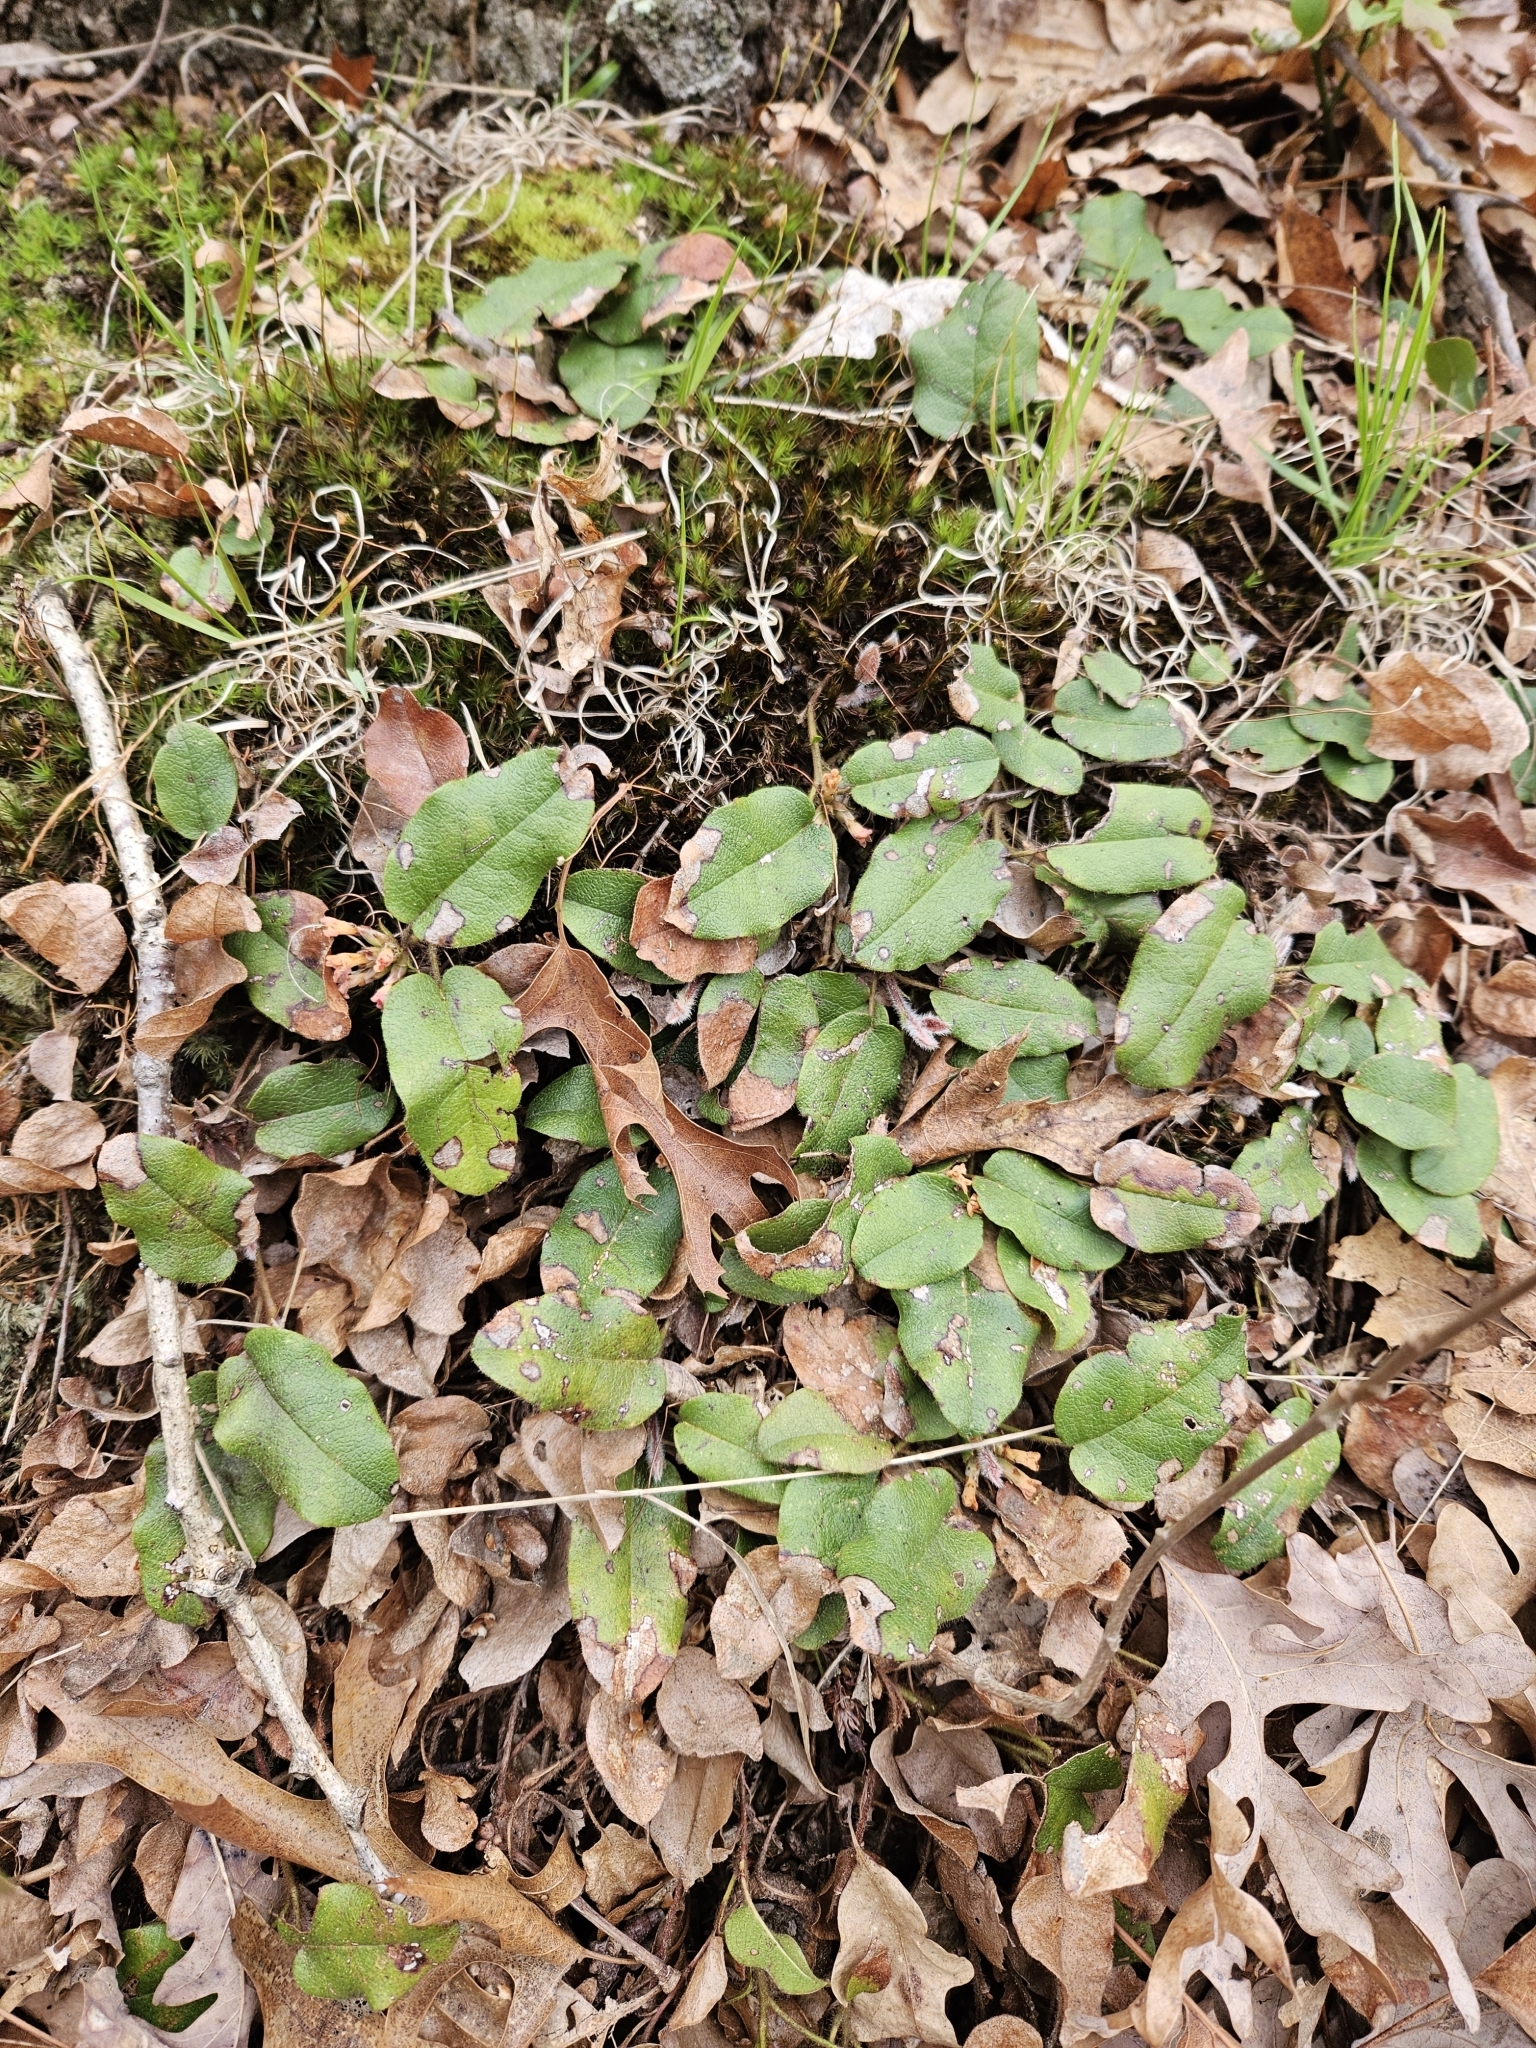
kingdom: Plantae
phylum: Tracheophyta
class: Magnoliopsida
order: Ericales
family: Ericaceae
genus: Epigaea
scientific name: Epigaea repens
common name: Gravelroot
